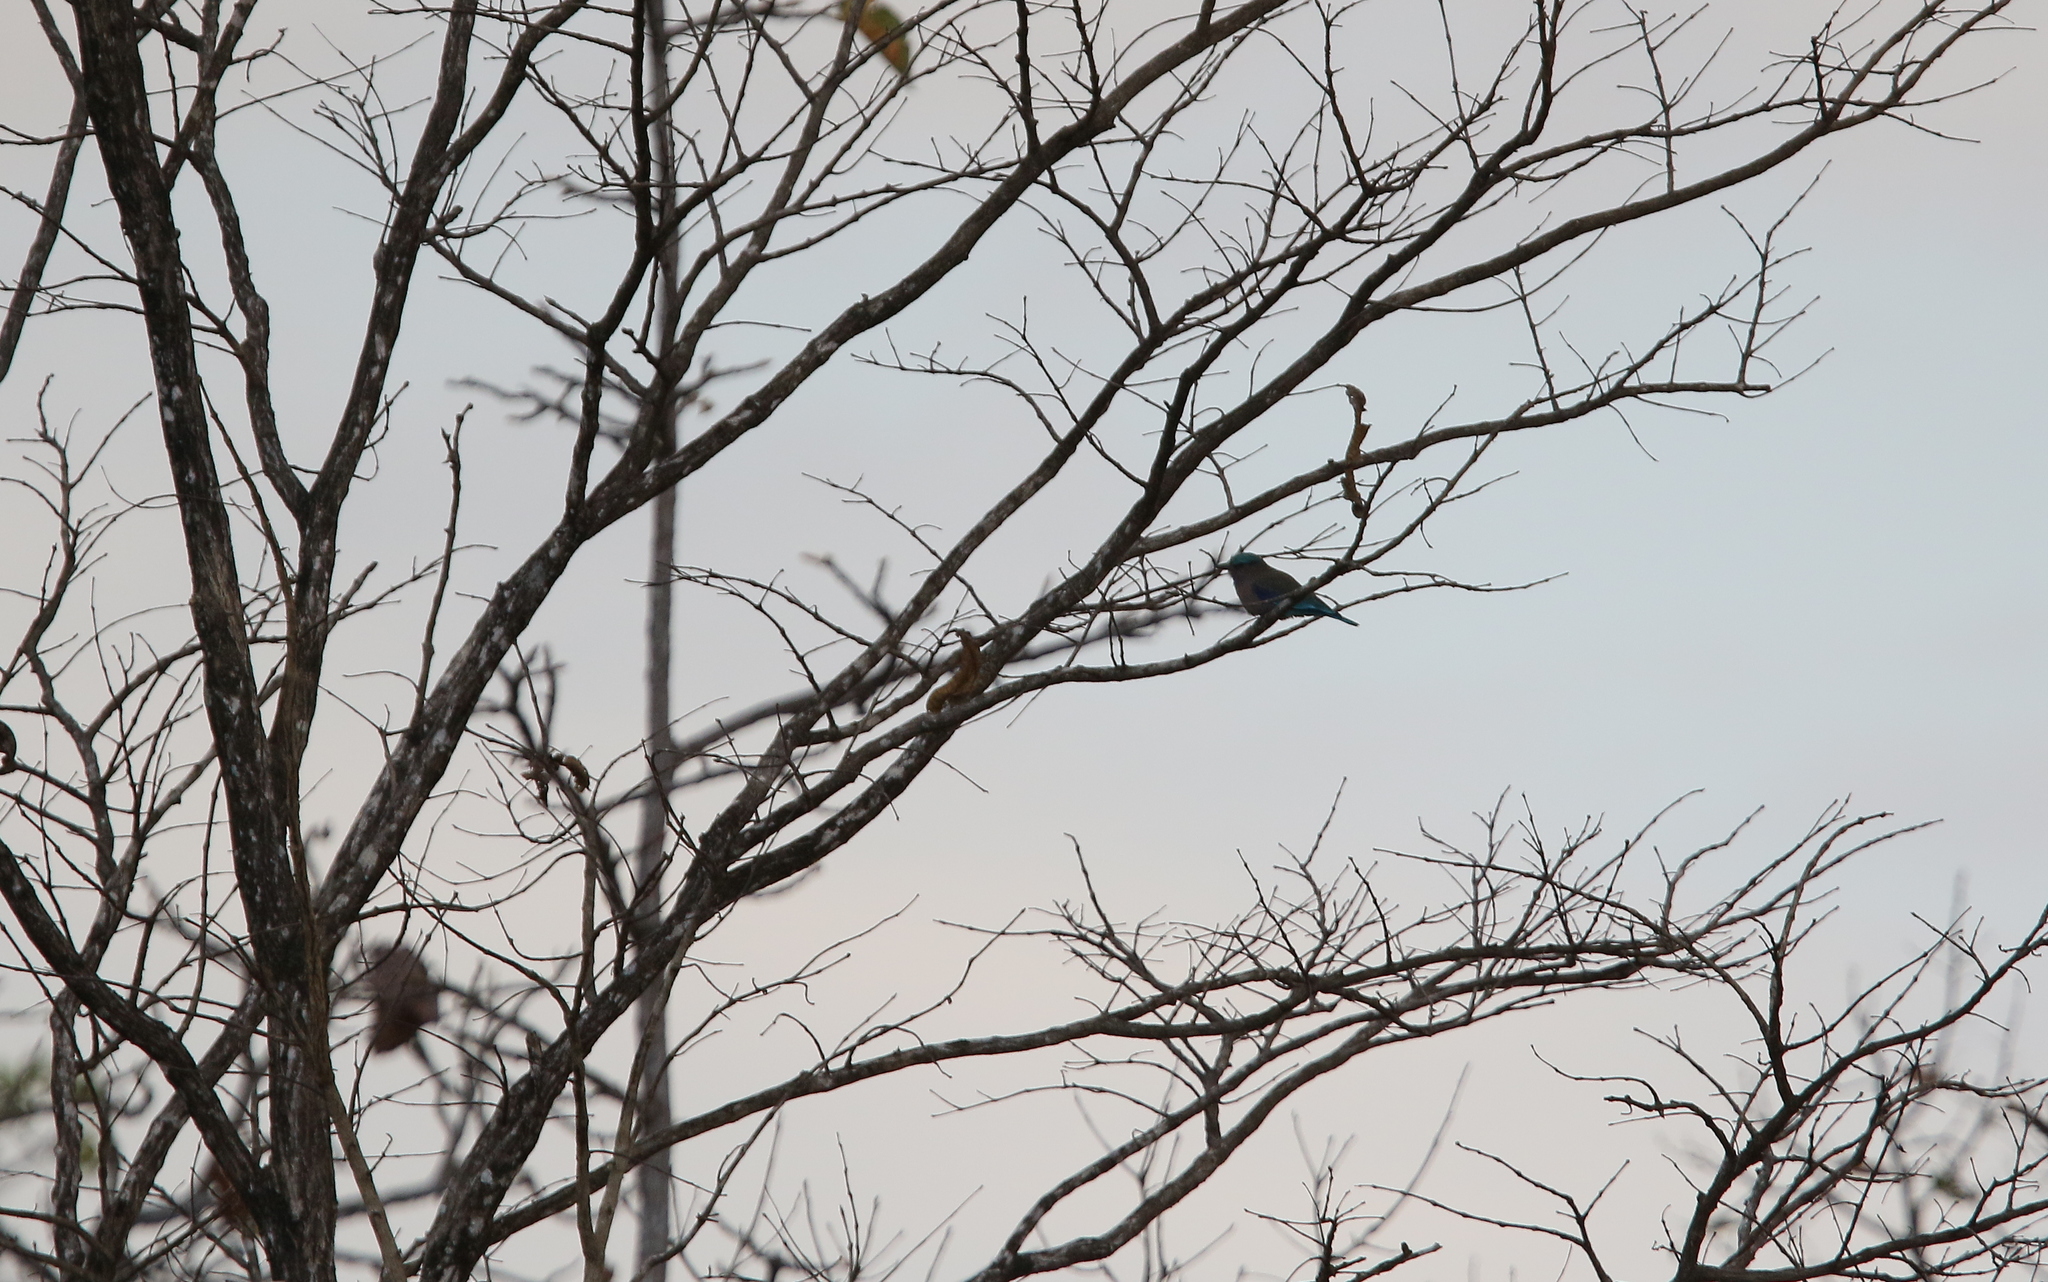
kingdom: Animalia
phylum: Chordata
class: Aves
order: Coraciiformes
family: Coraciidae
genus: Coracias
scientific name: Coracias affinis
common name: Indochinese roller
